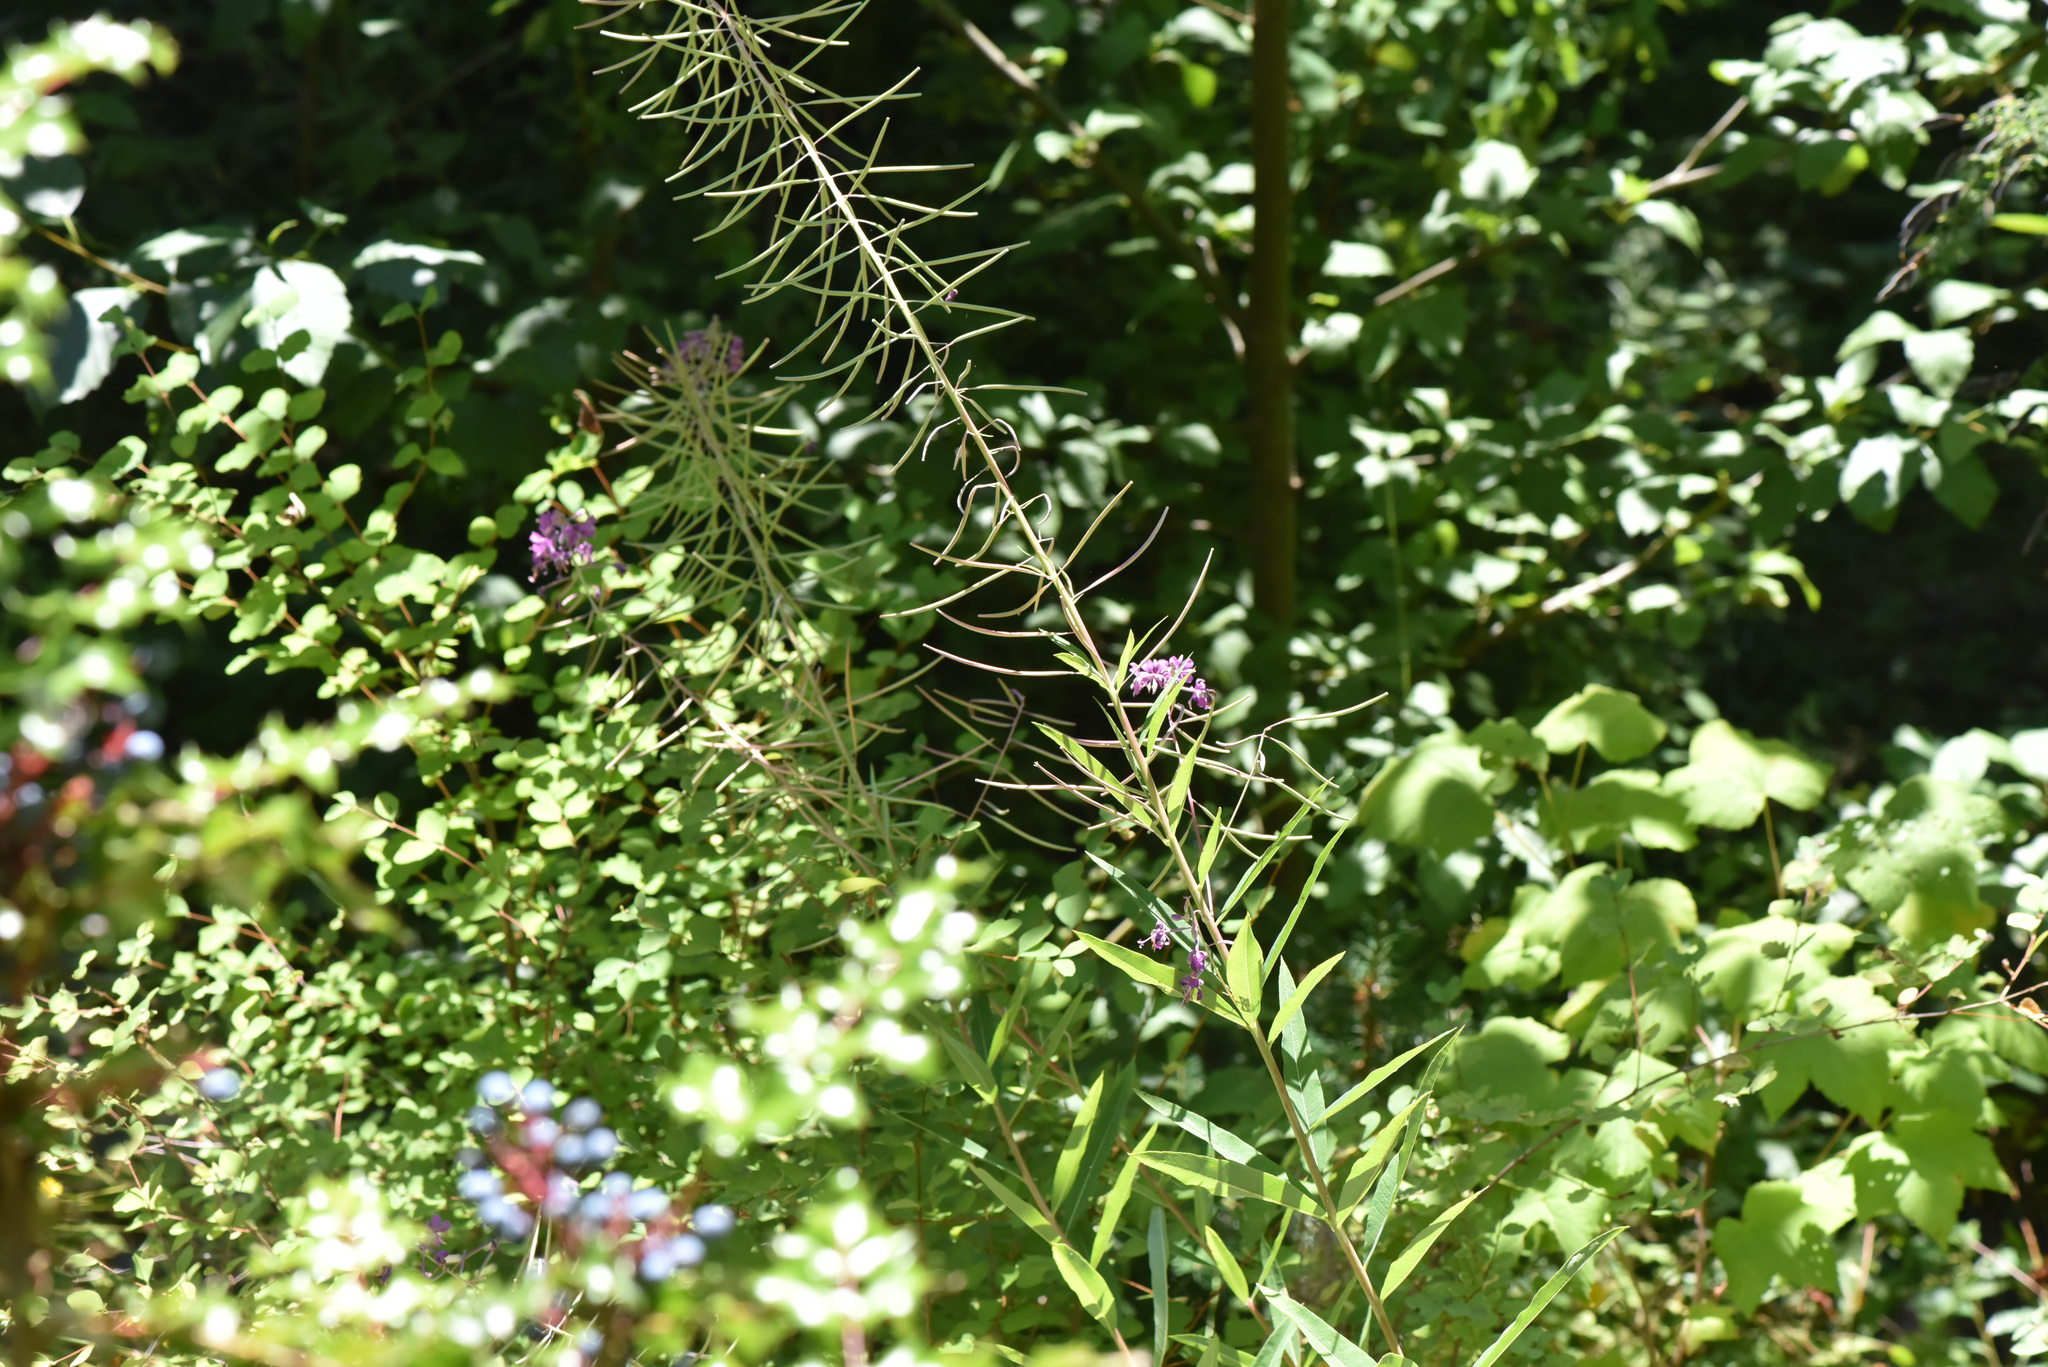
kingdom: Plantae
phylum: Tracheophyta
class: Magnoliopsida
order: Myrtales
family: Onagraceae
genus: Chamaenerion
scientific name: Chamaenerion angustifolium
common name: Fireweed
